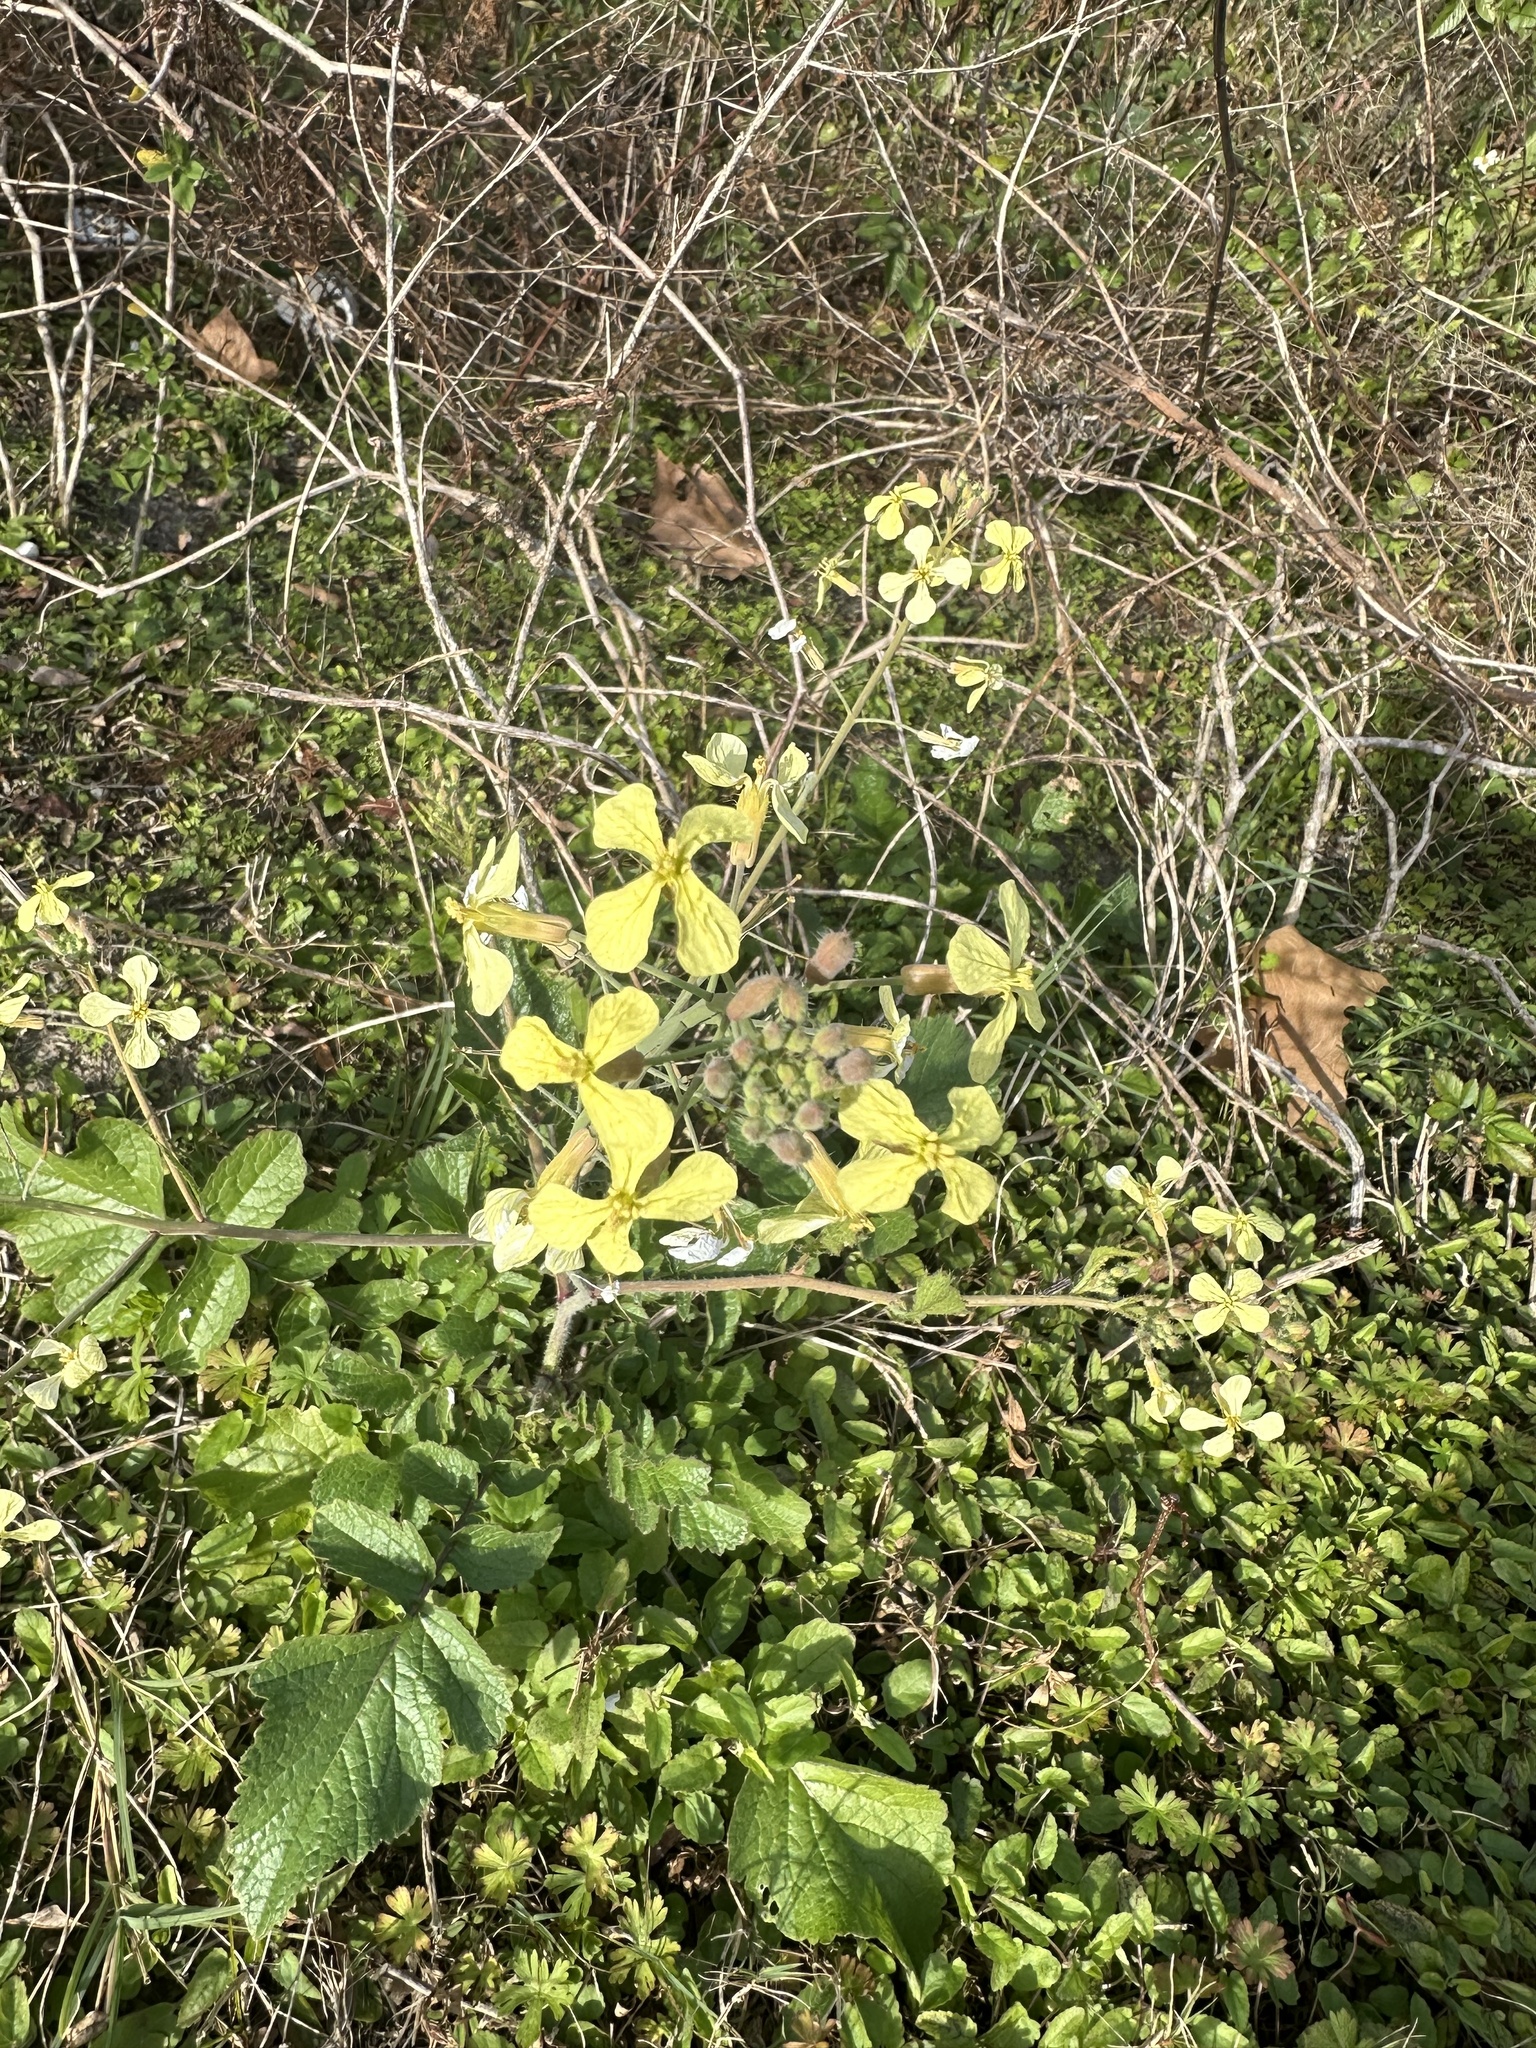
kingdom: Plantae
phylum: Tracheophyta
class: Magnoliopsida
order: Brassicales
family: Brassicaceae
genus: Raphanus
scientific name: Raphanus raphanistrum
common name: Wild radish
